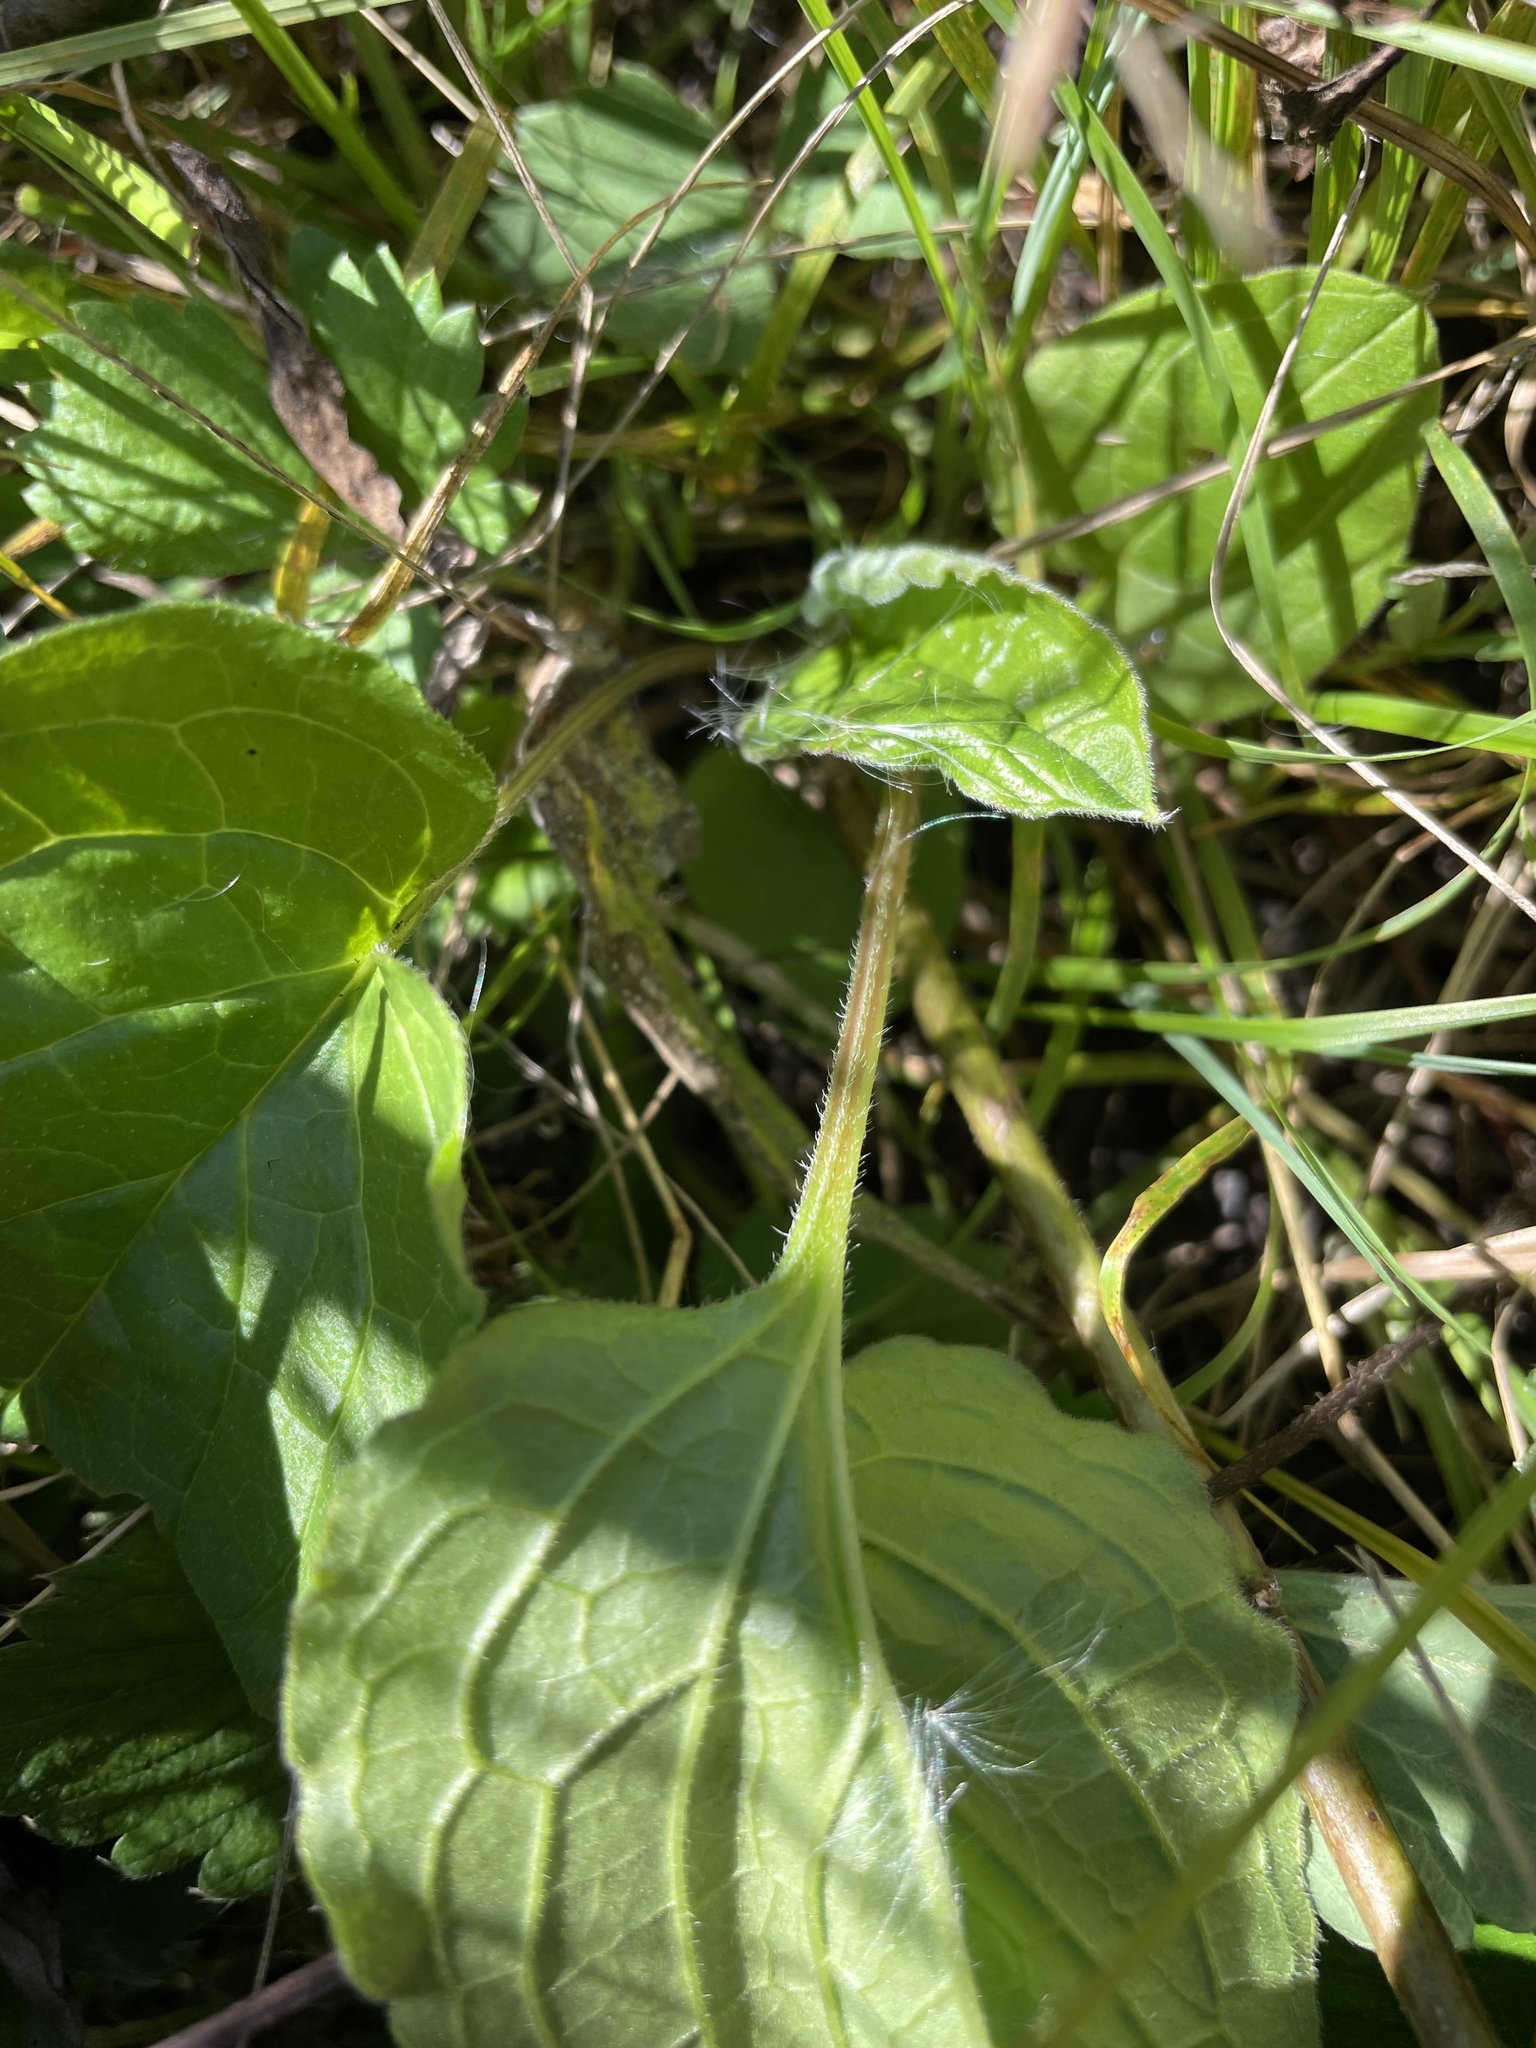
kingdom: Plantae
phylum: Tracheophyta
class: Magnoliopsida
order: Boraginales
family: Boraginaceae
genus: Hackelia
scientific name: Hackelia virginiana
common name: Beggar's-lice
